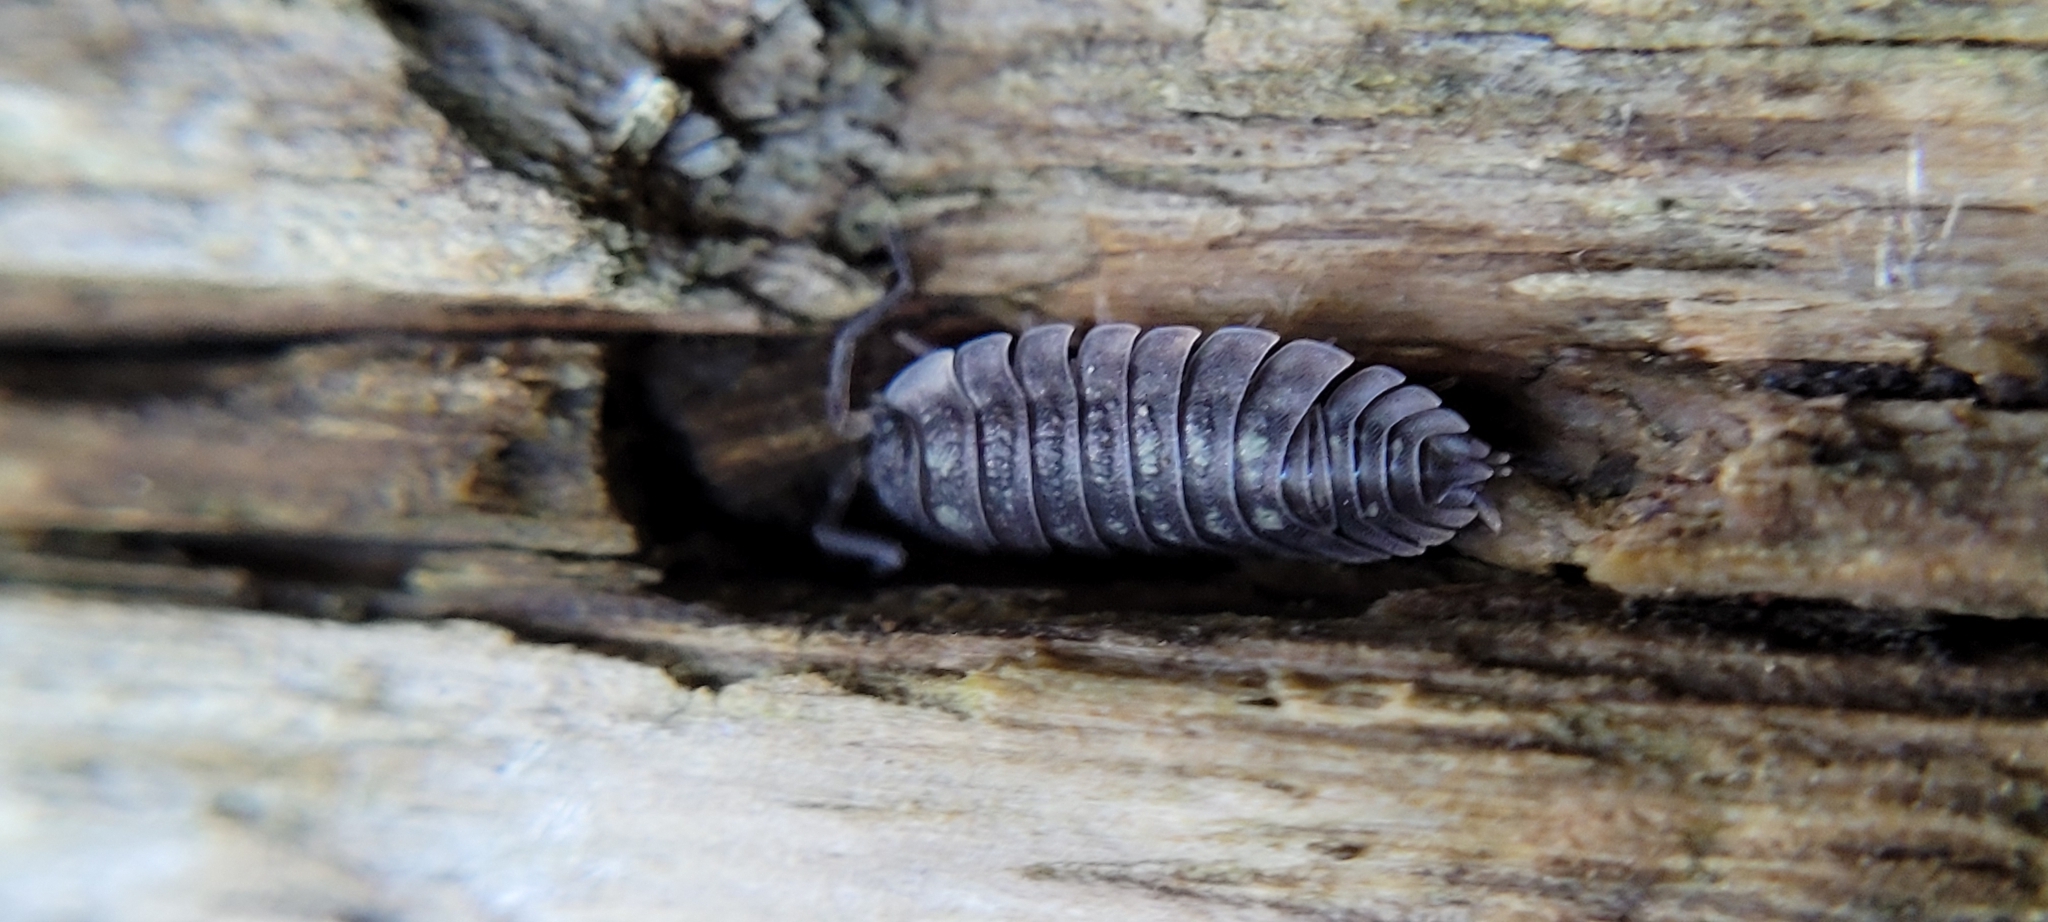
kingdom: Animalia
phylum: Arthropoda
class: Malacostraca
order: Isopoda
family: Oniscidae
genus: Oniscus
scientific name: Oniscus asellus
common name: Common shiny woodlouse
